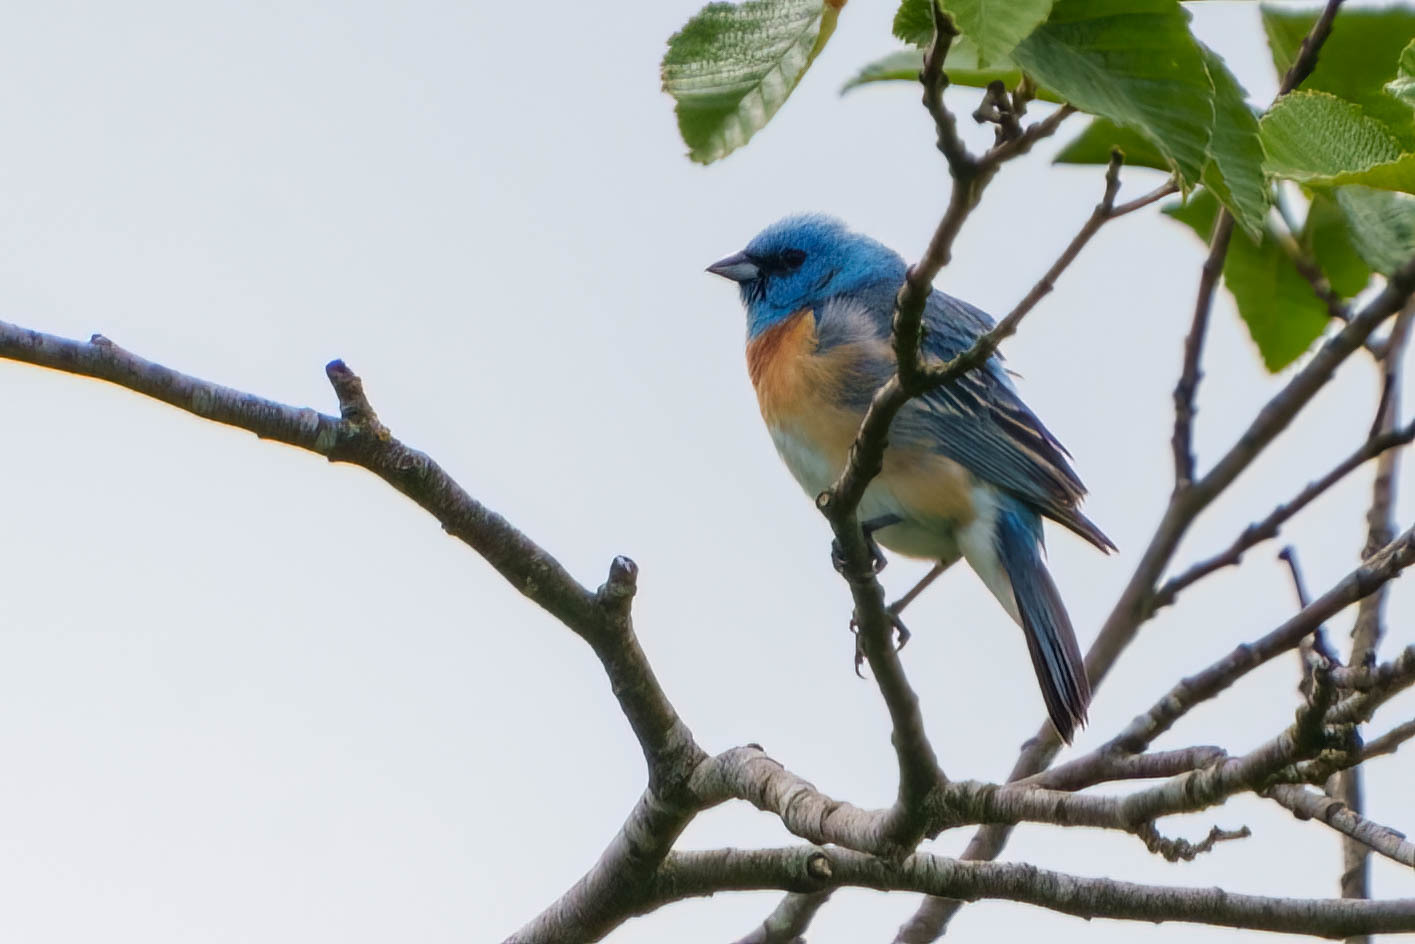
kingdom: Animalia
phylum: Chordata
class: Aves
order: Passeriformes
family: Cardinalidae
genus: Passerina
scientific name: Passerina amoena
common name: Lazuli bunting
